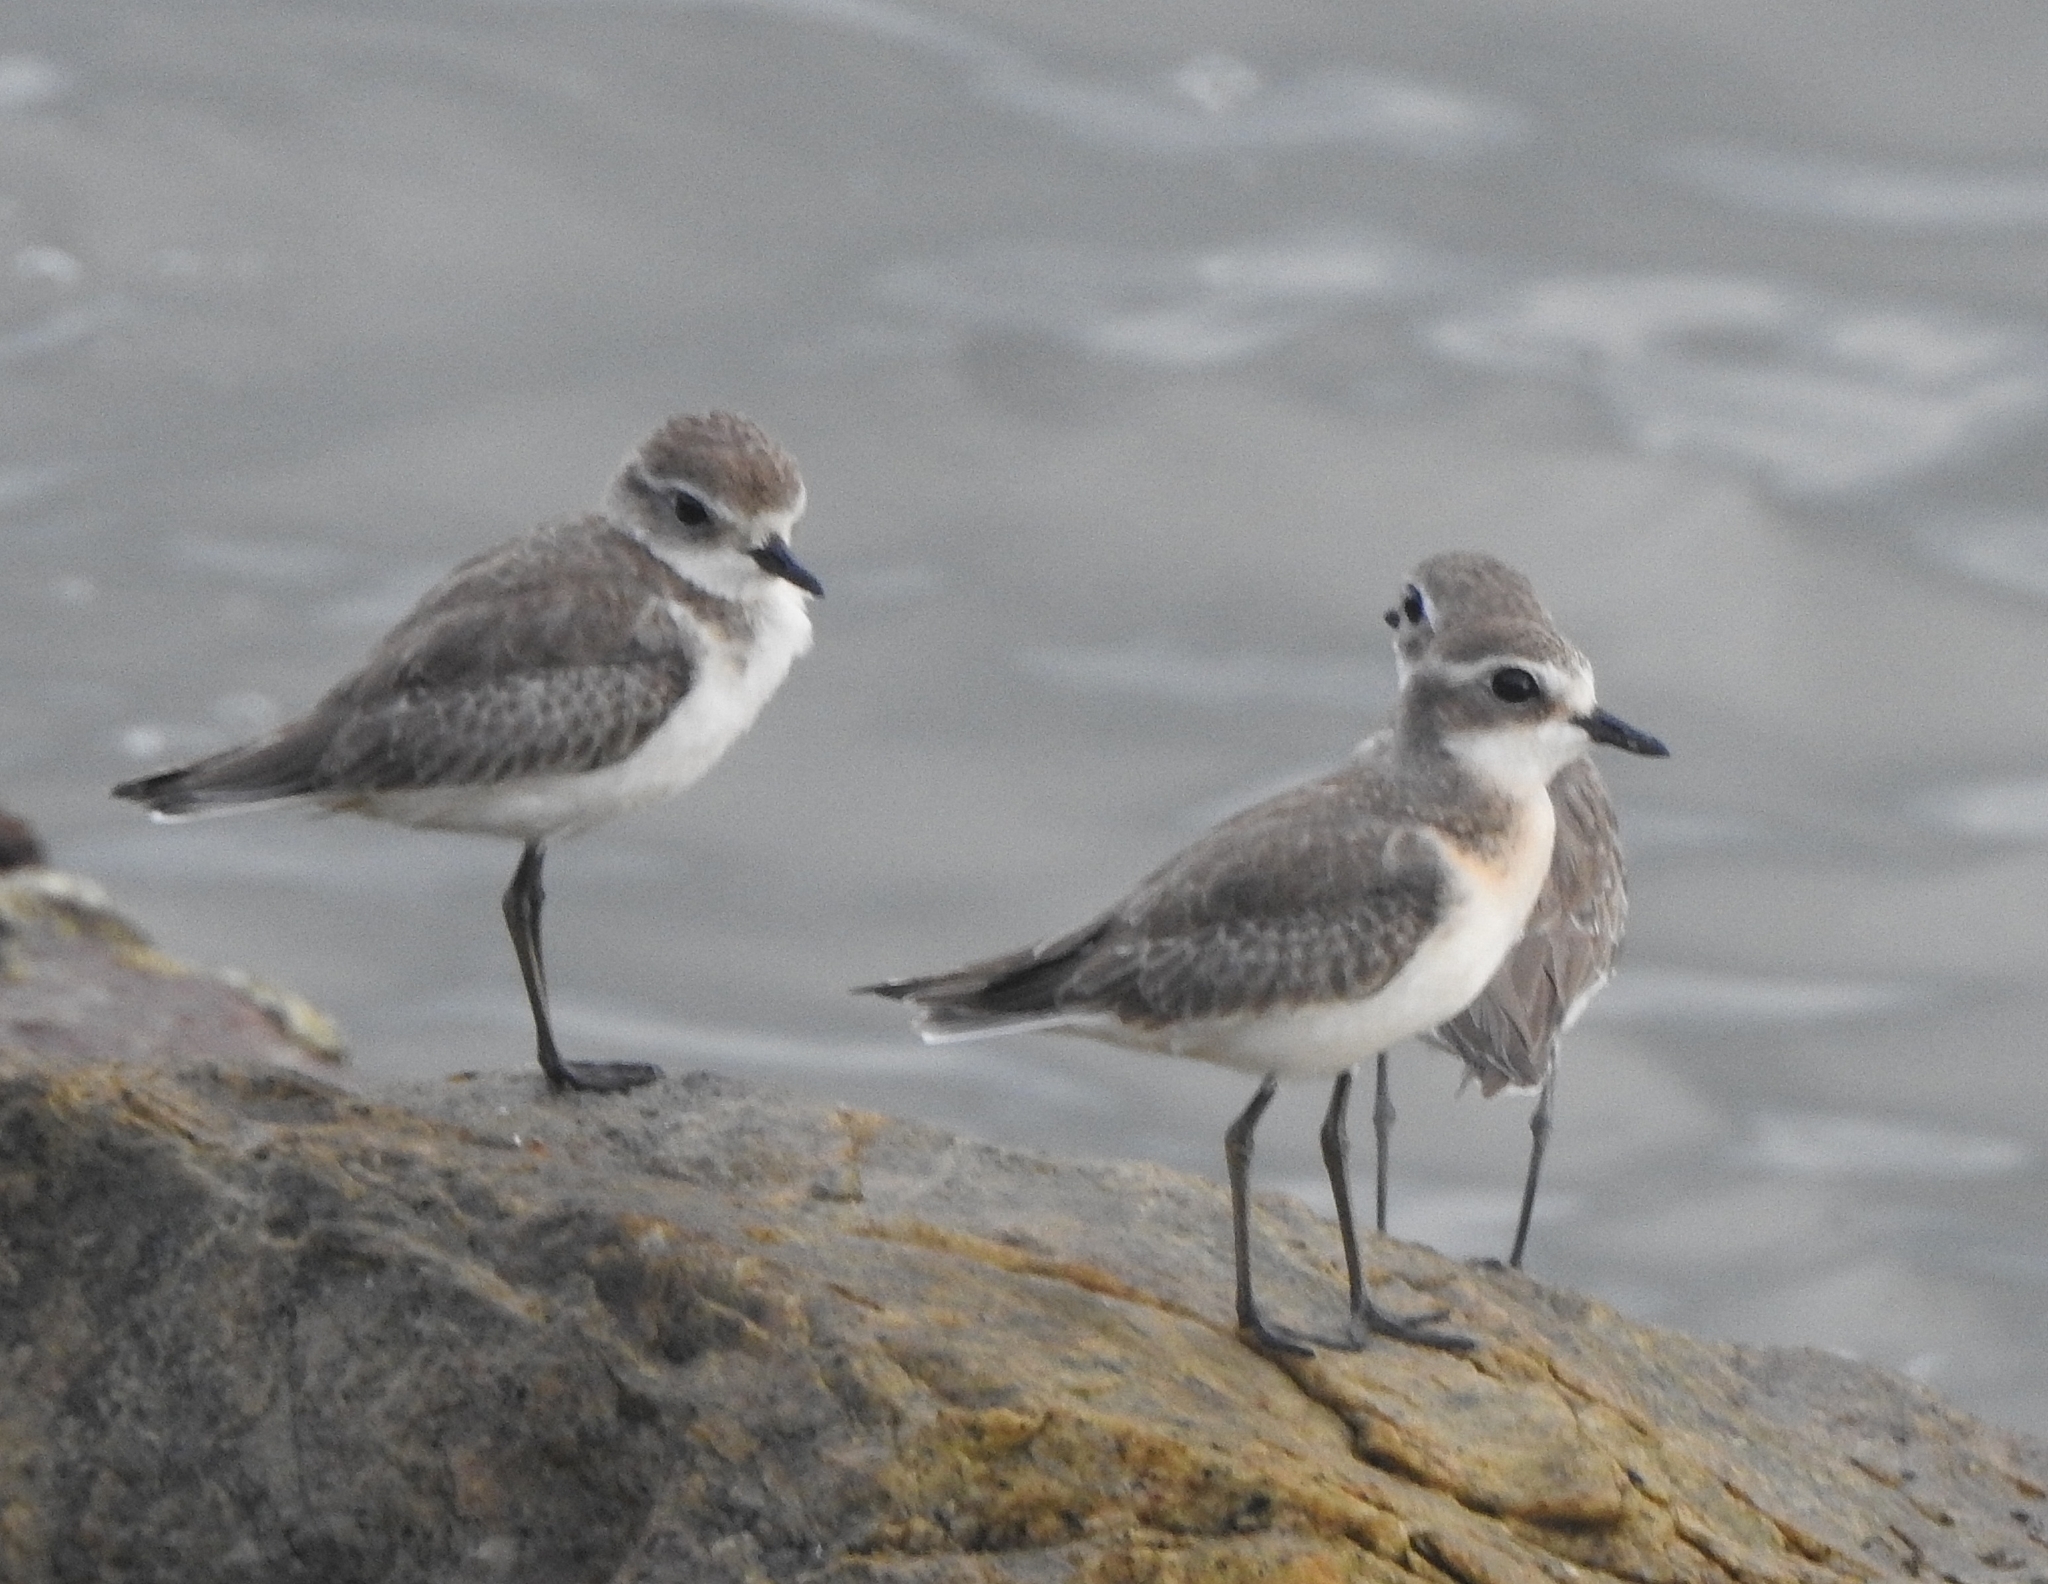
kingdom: Animalia
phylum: Chordata
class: Aves
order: Charadriiformes
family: Charadriidae
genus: Anarhynchus
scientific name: Anarhynchus
